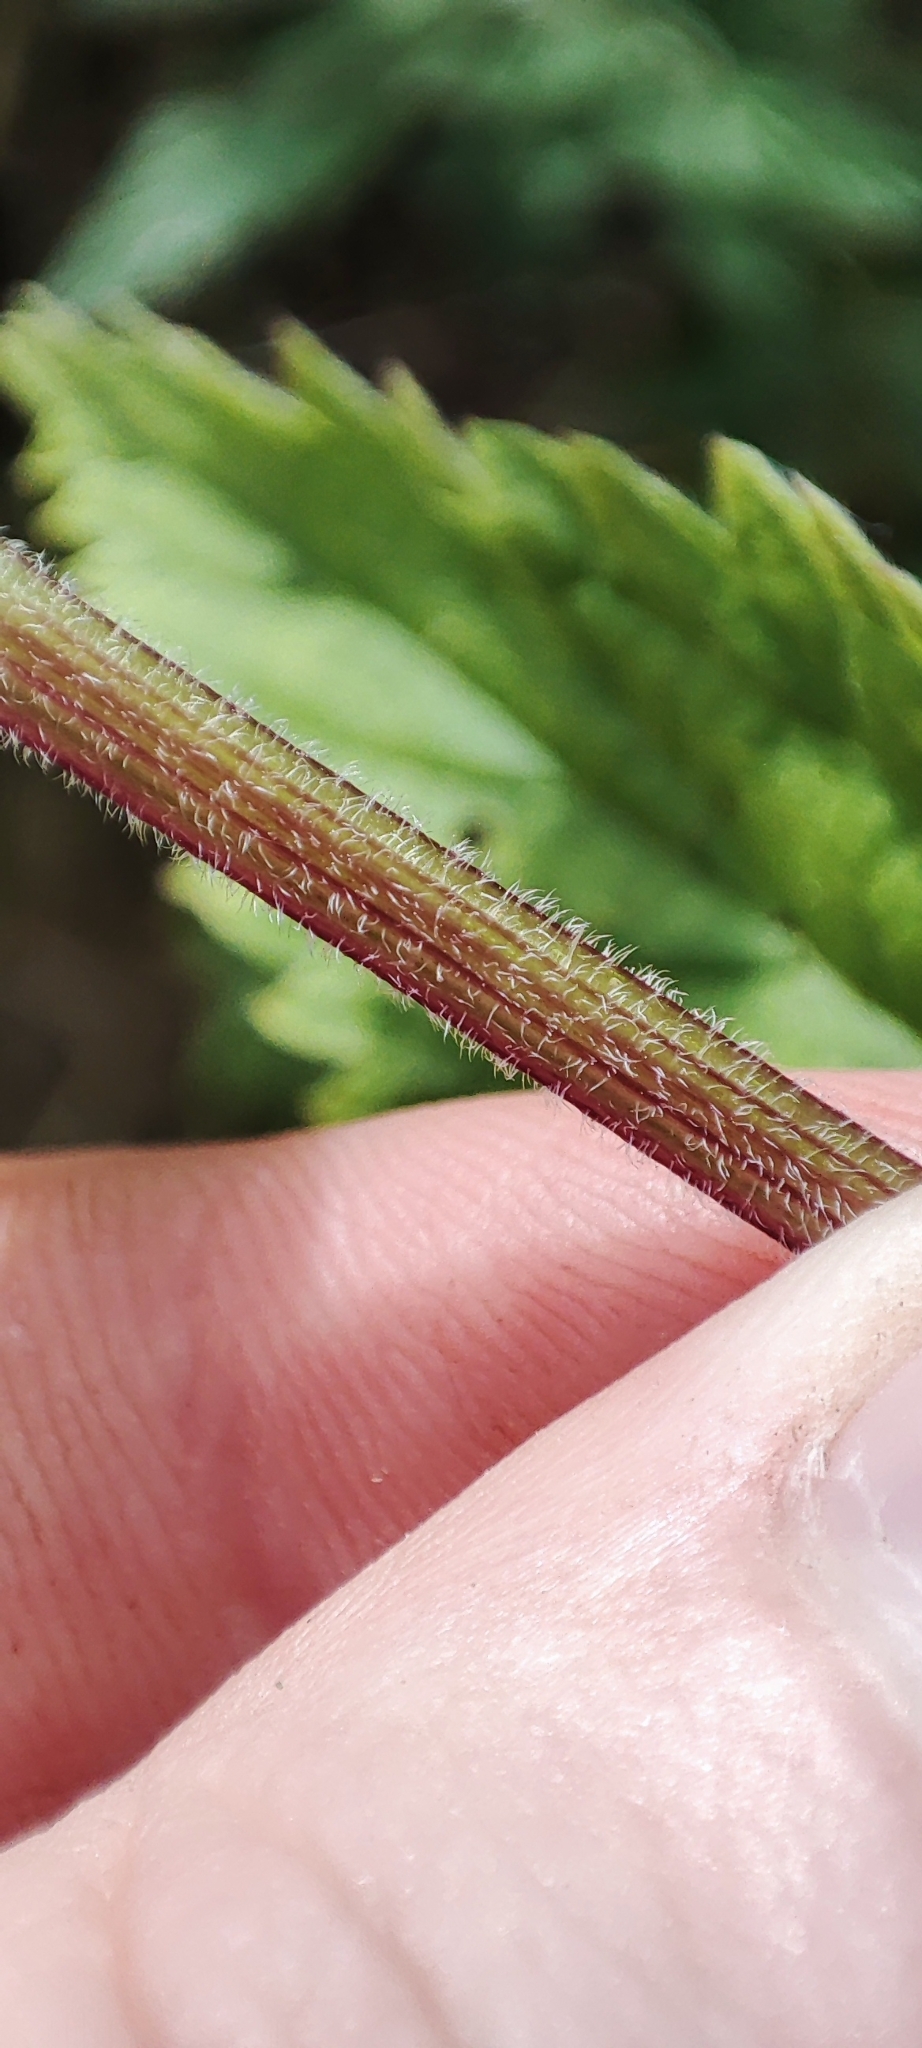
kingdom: Plantae
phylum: Tracheophyta
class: Magnoliopsida
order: Rosales
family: Urticaceae
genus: Urtica
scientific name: Urtica galeopsifolia
